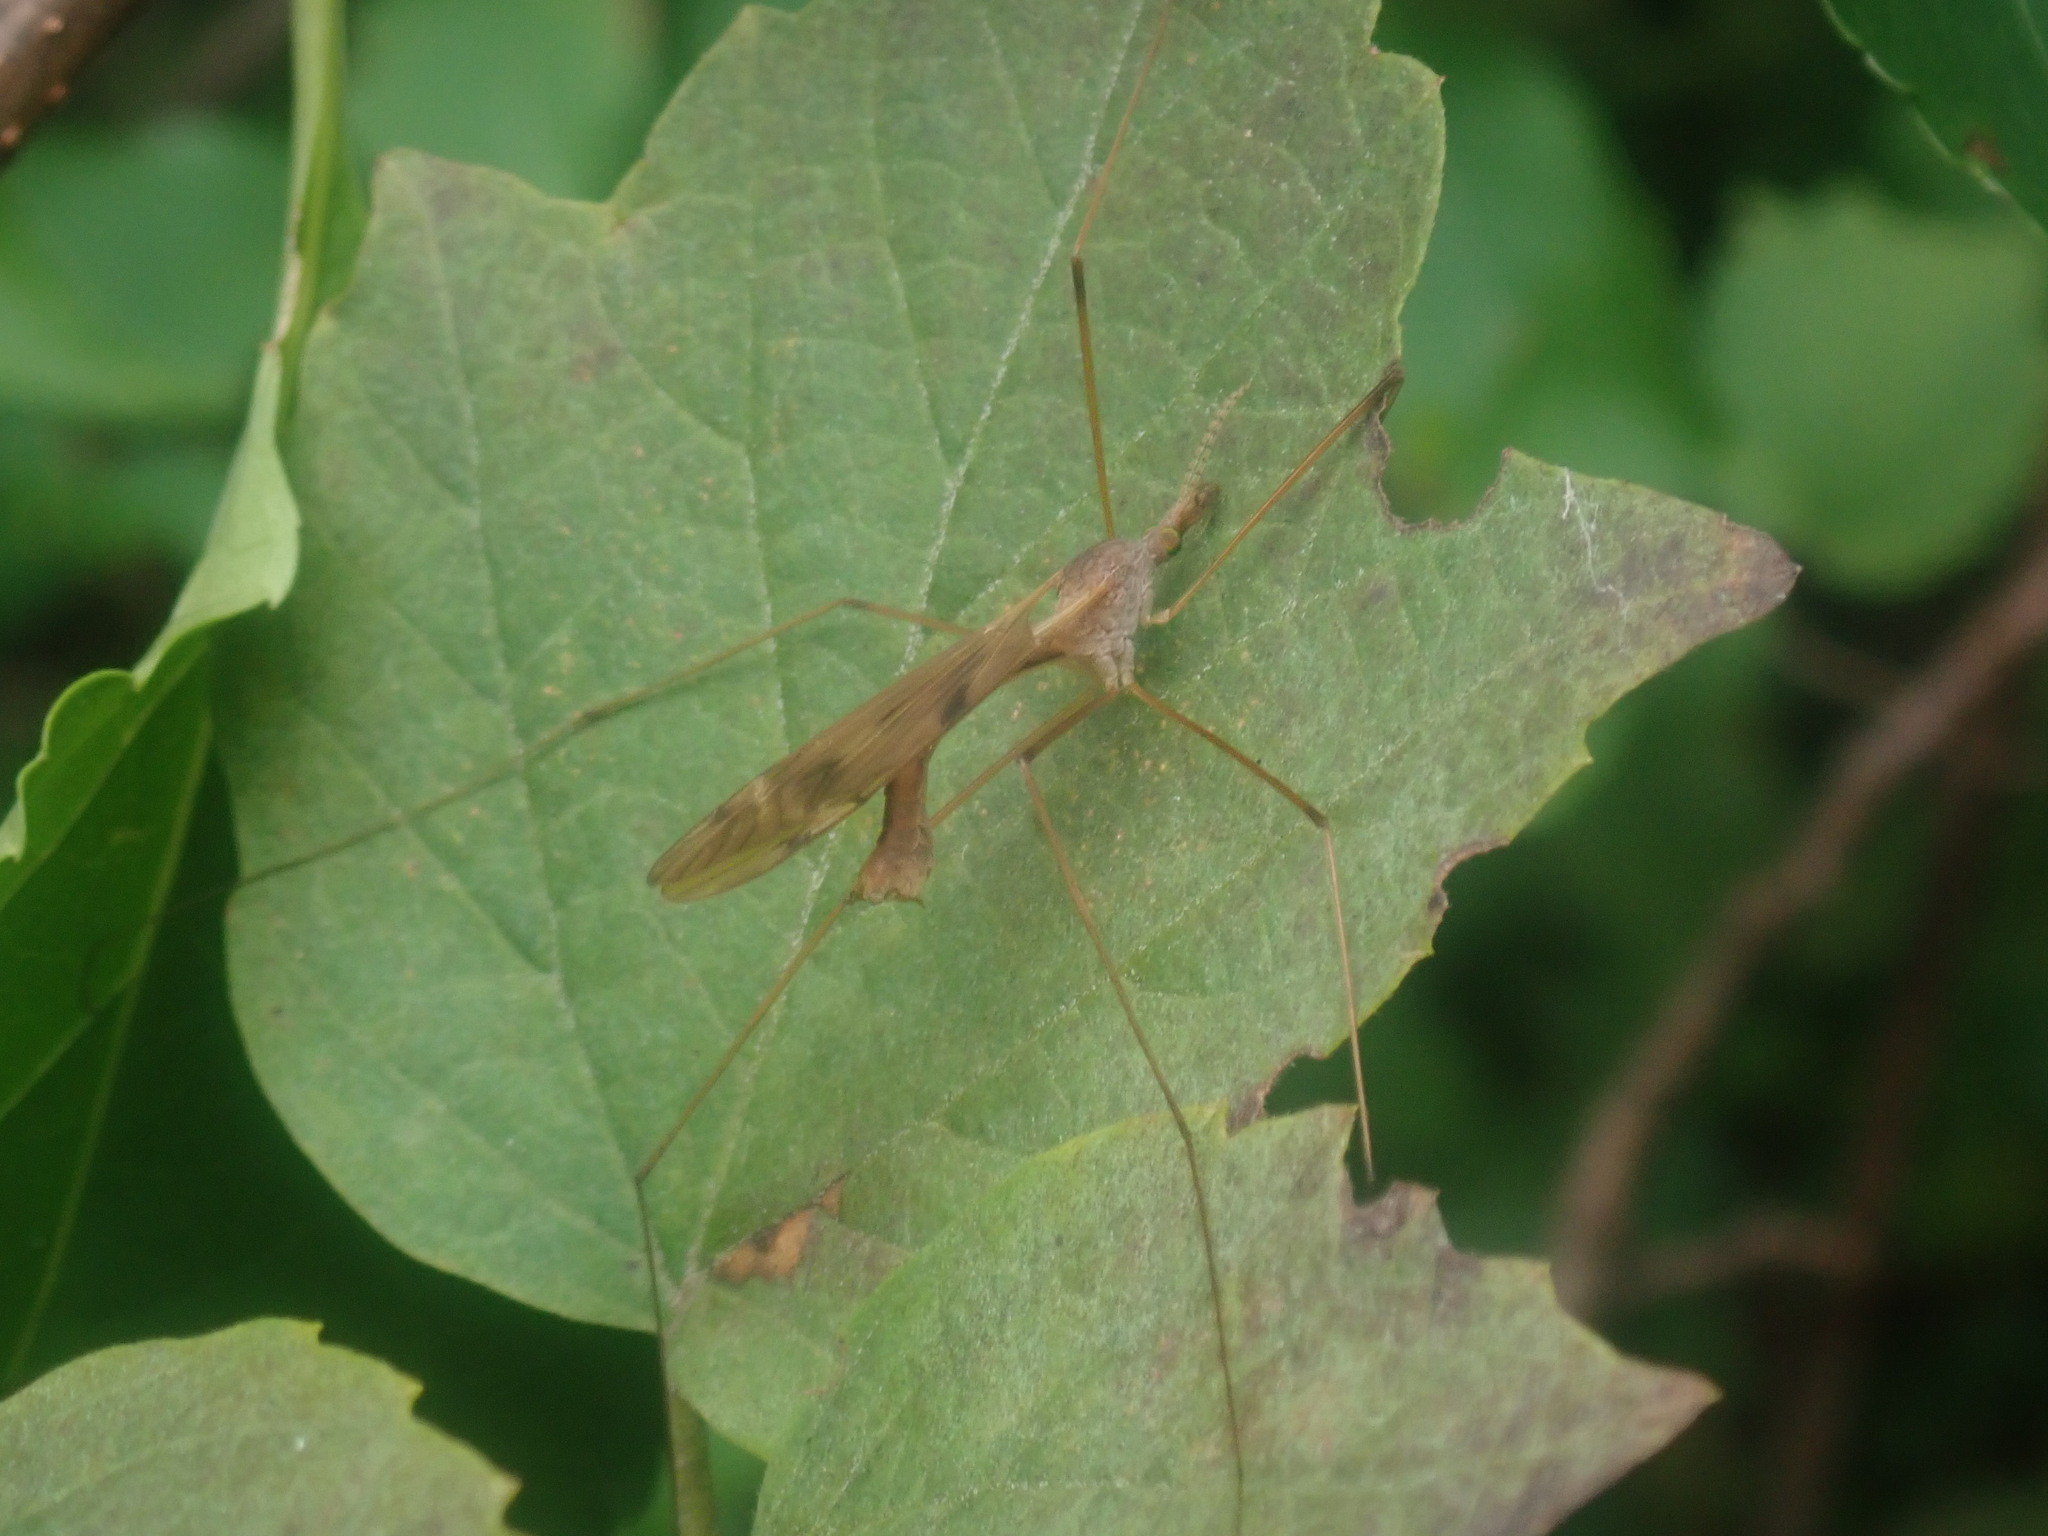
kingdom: Animalia
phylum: Arthropoda
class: Insecta
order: Diptera
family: Tipulidae
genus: Tipula
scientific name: Tipula
